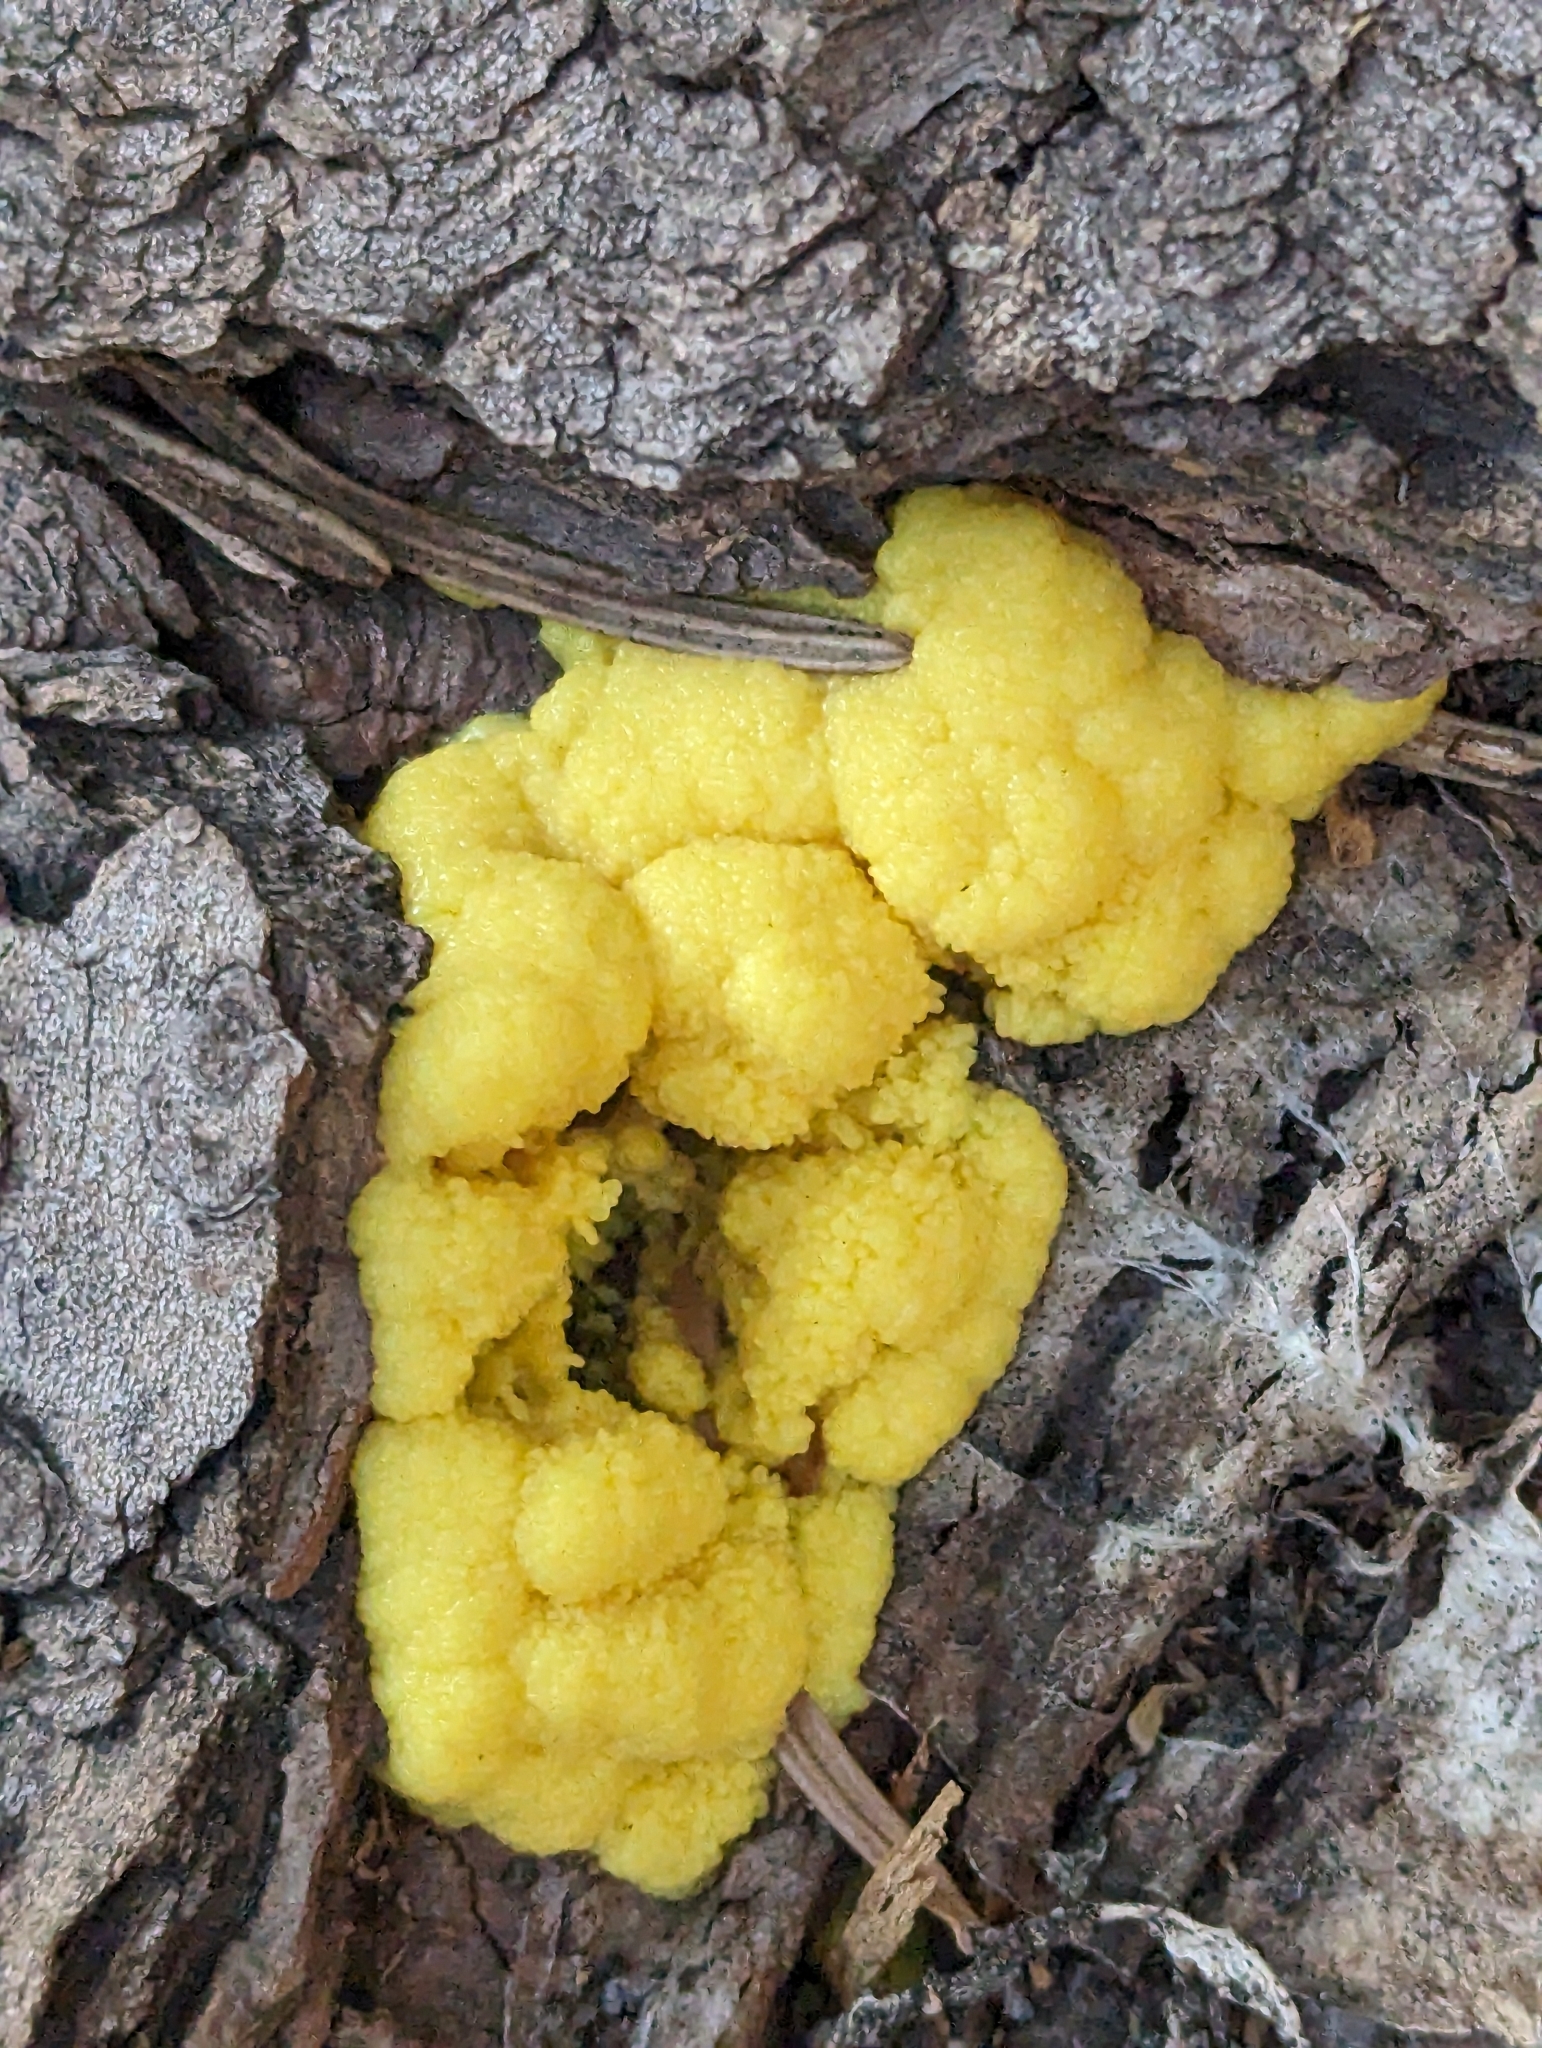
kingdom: Protozoa
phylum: Mycetozoa
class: Myxomycetes
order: Physarales
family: Physaraceae
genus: Fuligo
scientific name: Fuligo septica
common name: Dog vomit slime mold
